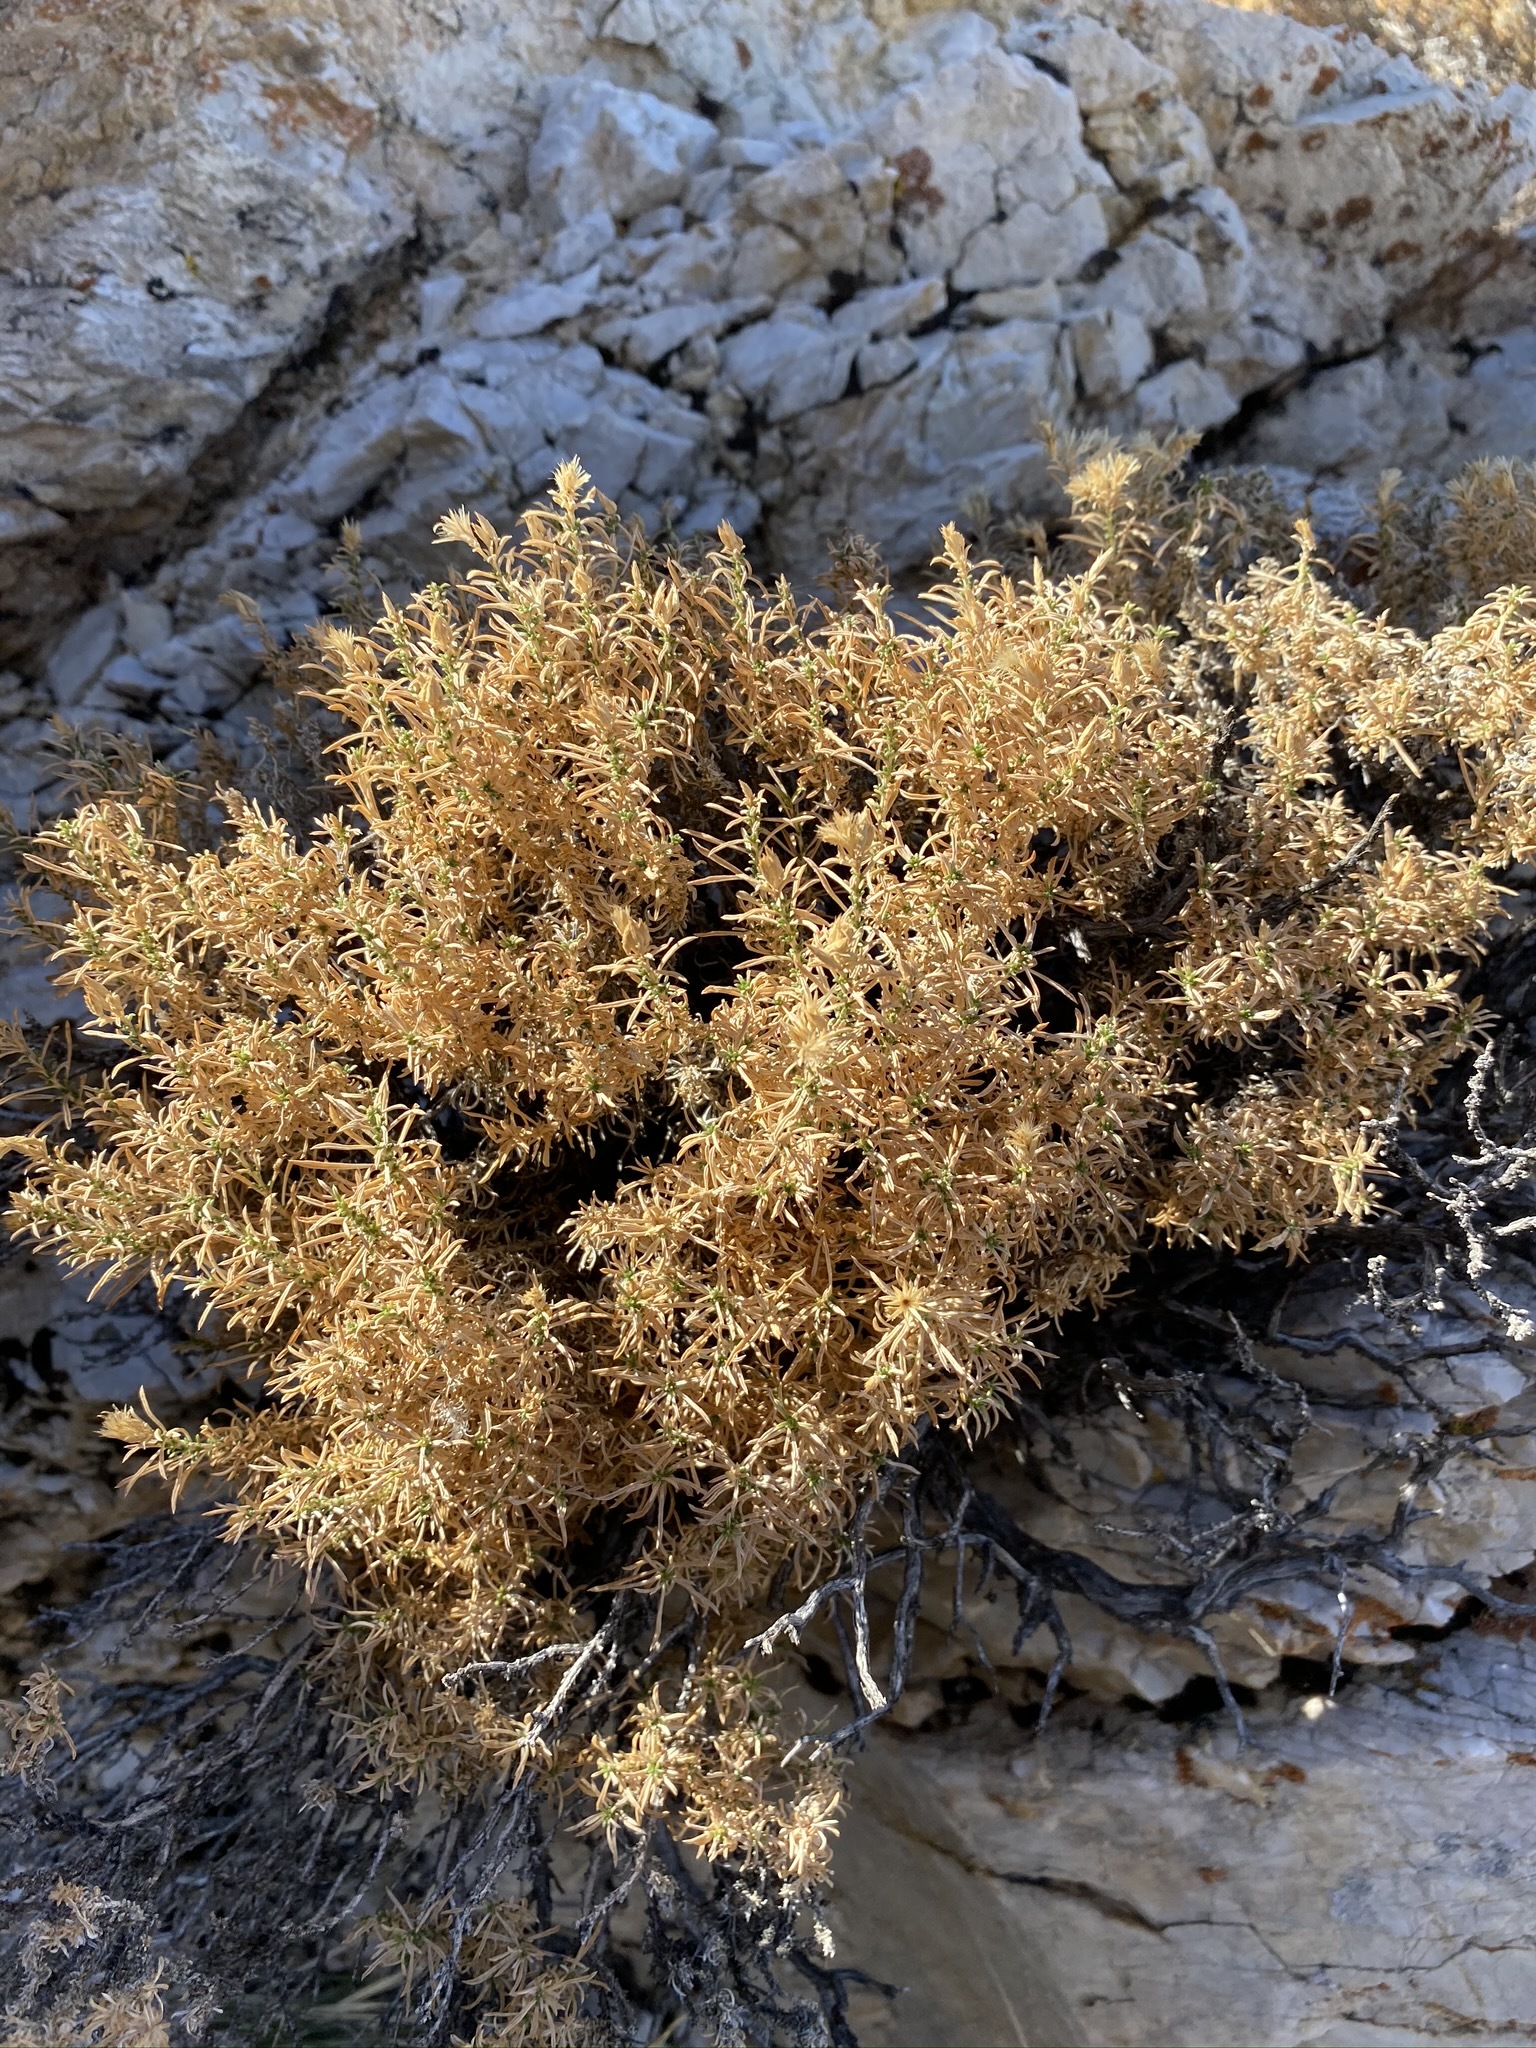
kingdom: Plantae
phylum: Tracheophyta
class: Magnoliopsida
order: Asterales
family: Asteraceae
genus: Ericameria
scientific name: Ericameria nana
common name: Dwarf goldenbush
